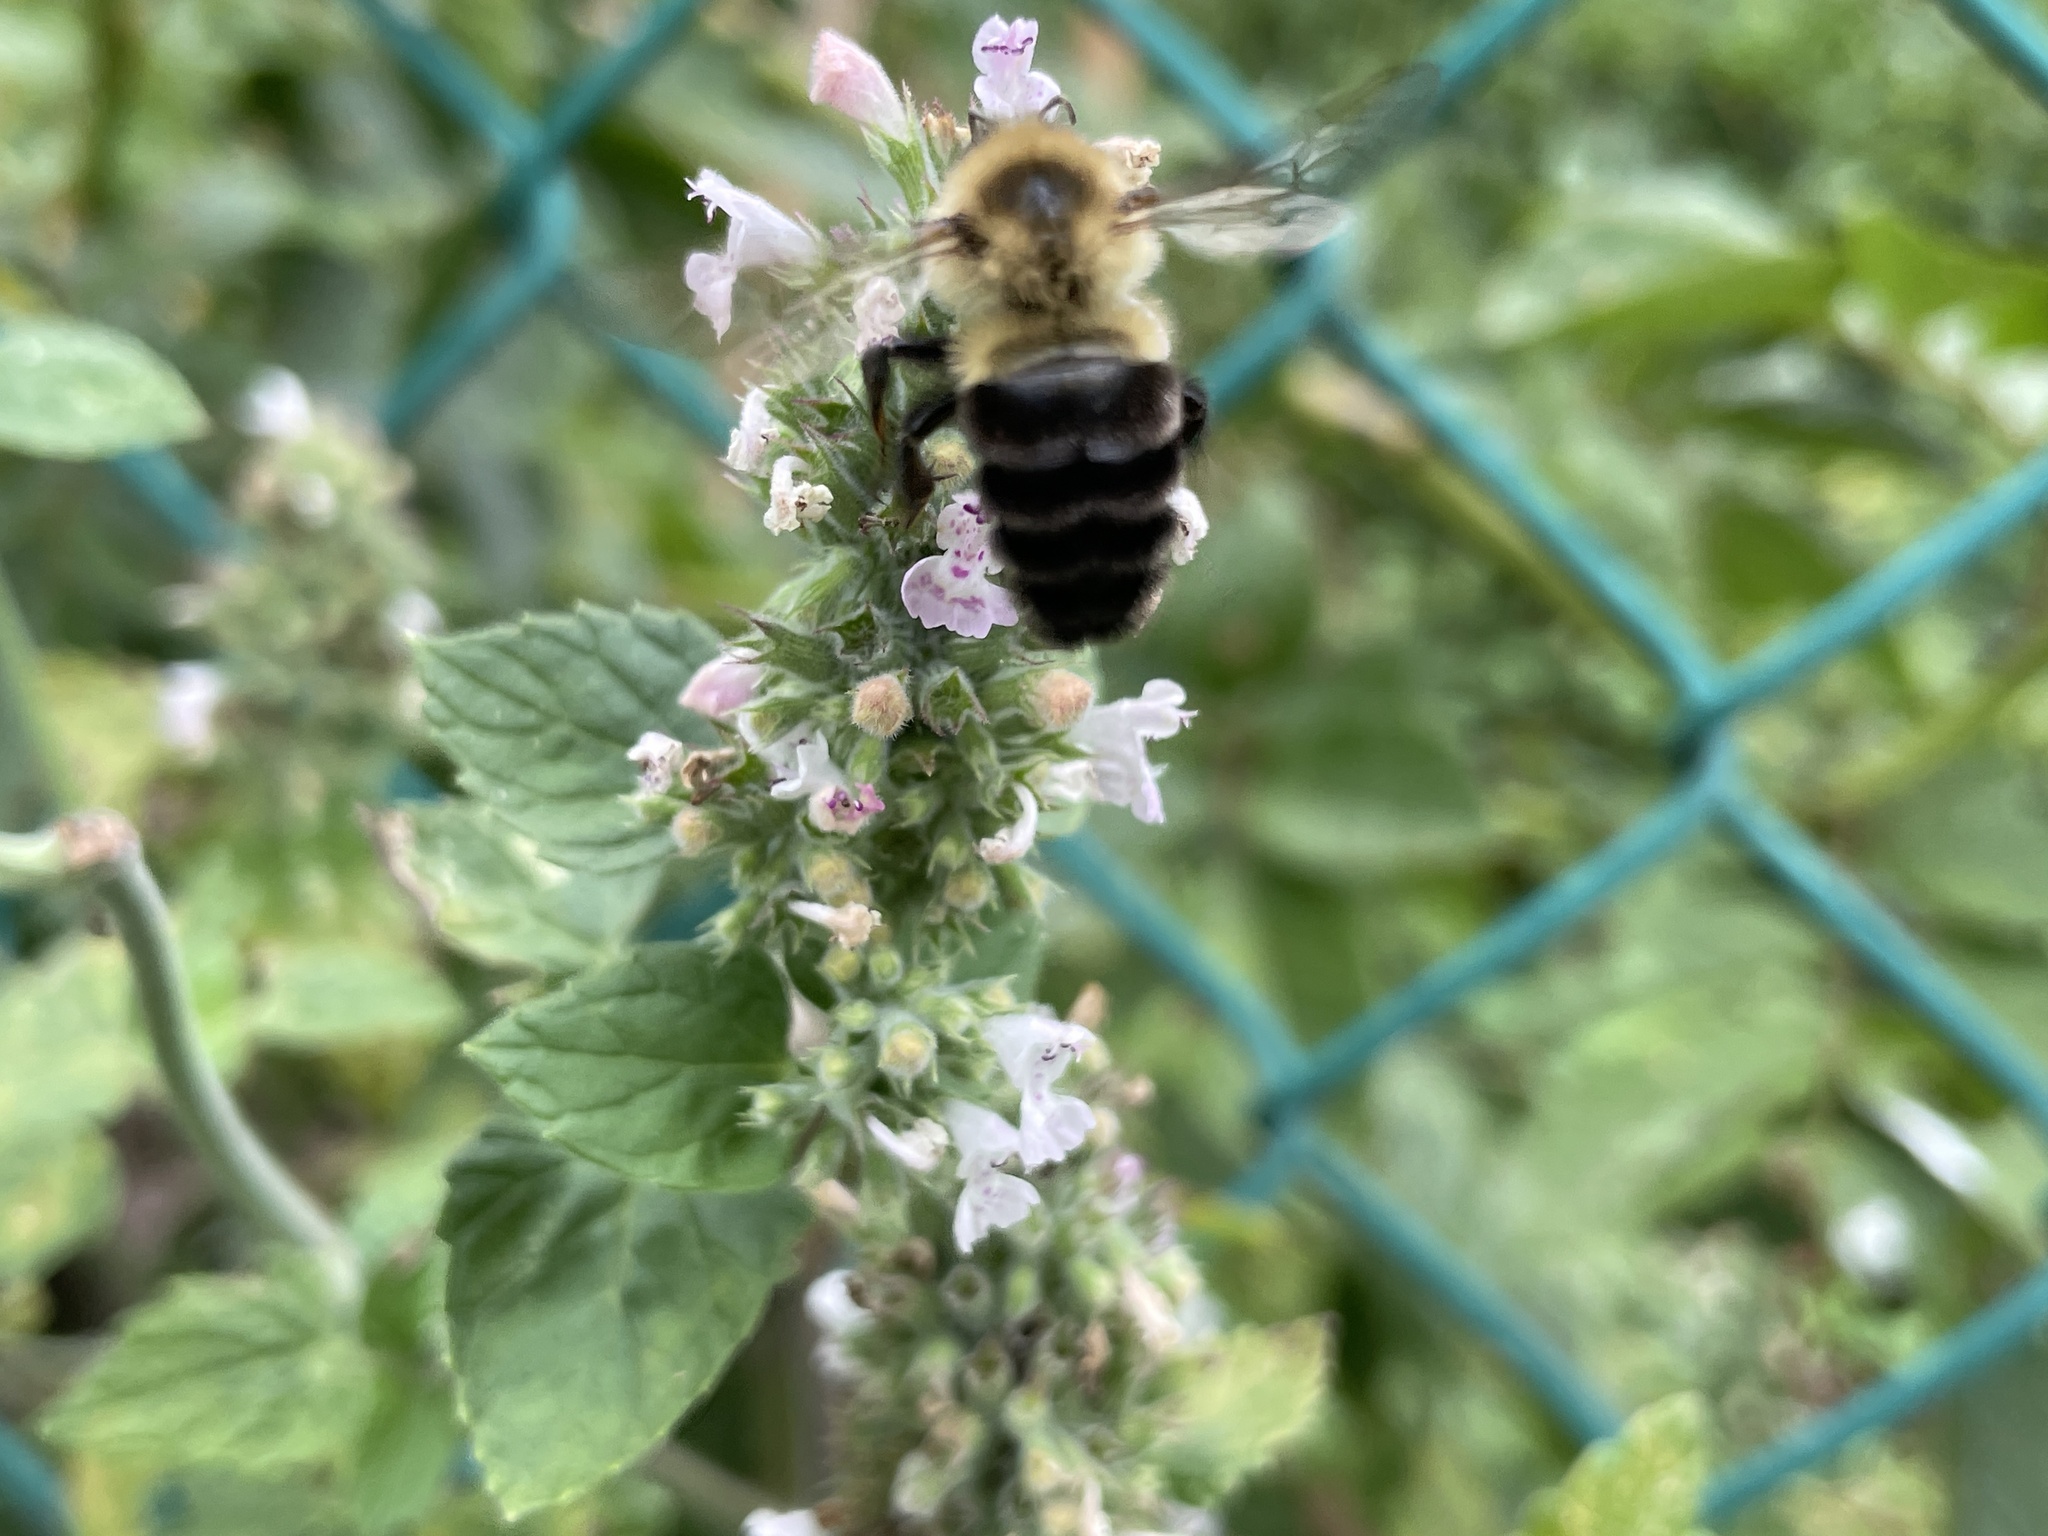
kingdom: Animalia
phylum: Arthropoda
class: Insecta
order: Hymenoptera
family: Apidae
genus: Bombus
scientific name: Bombus impatiens
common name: Common eastern bumble bee
